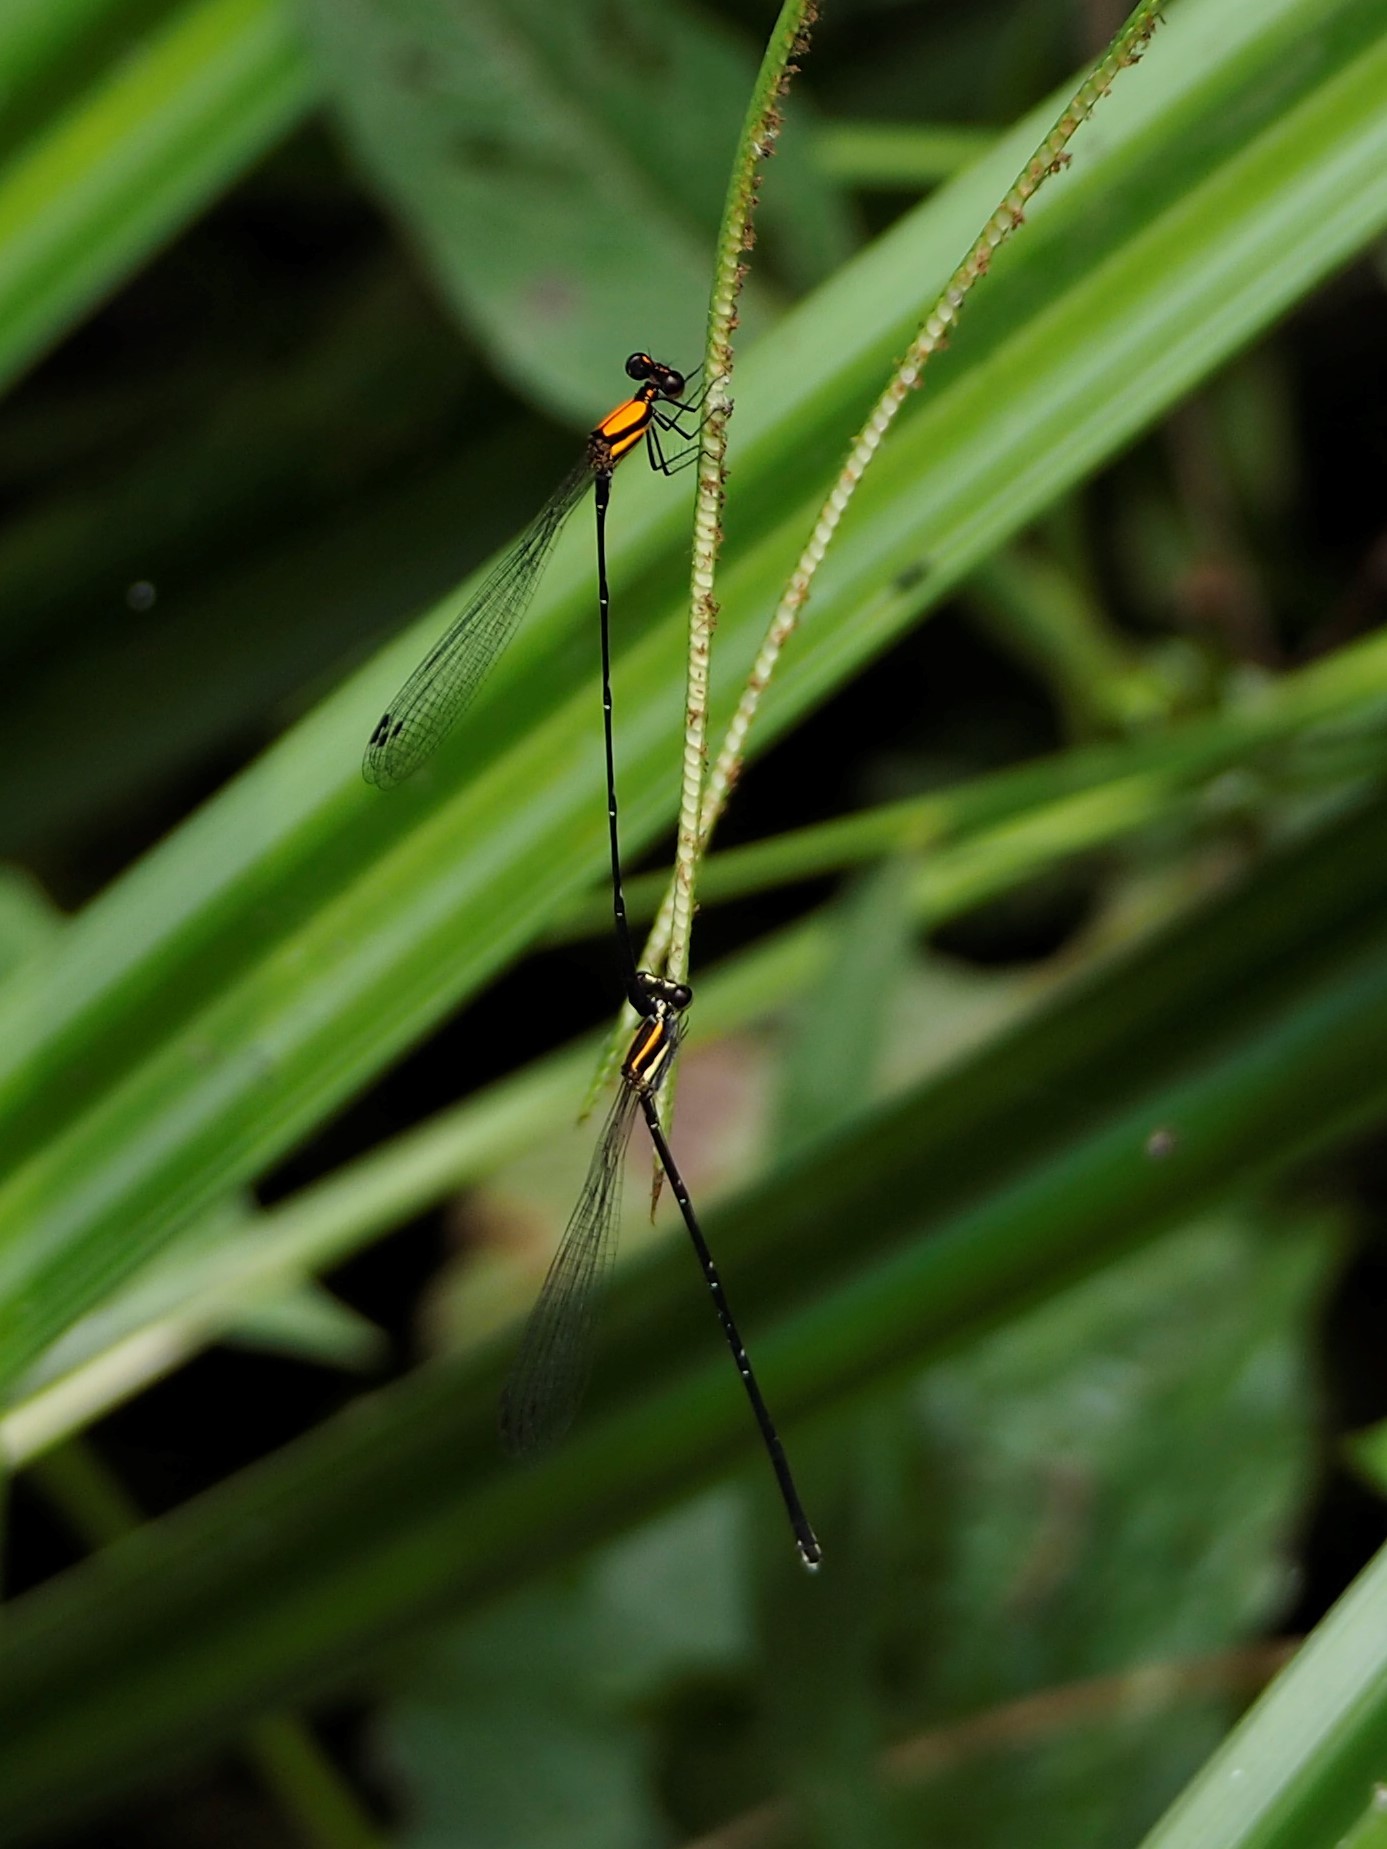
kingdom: Animalia
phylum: Arthropoda
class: Insecta
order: Odonata
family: Platycnemididae
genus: Prodasineura
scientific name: Prodasineura croconota
